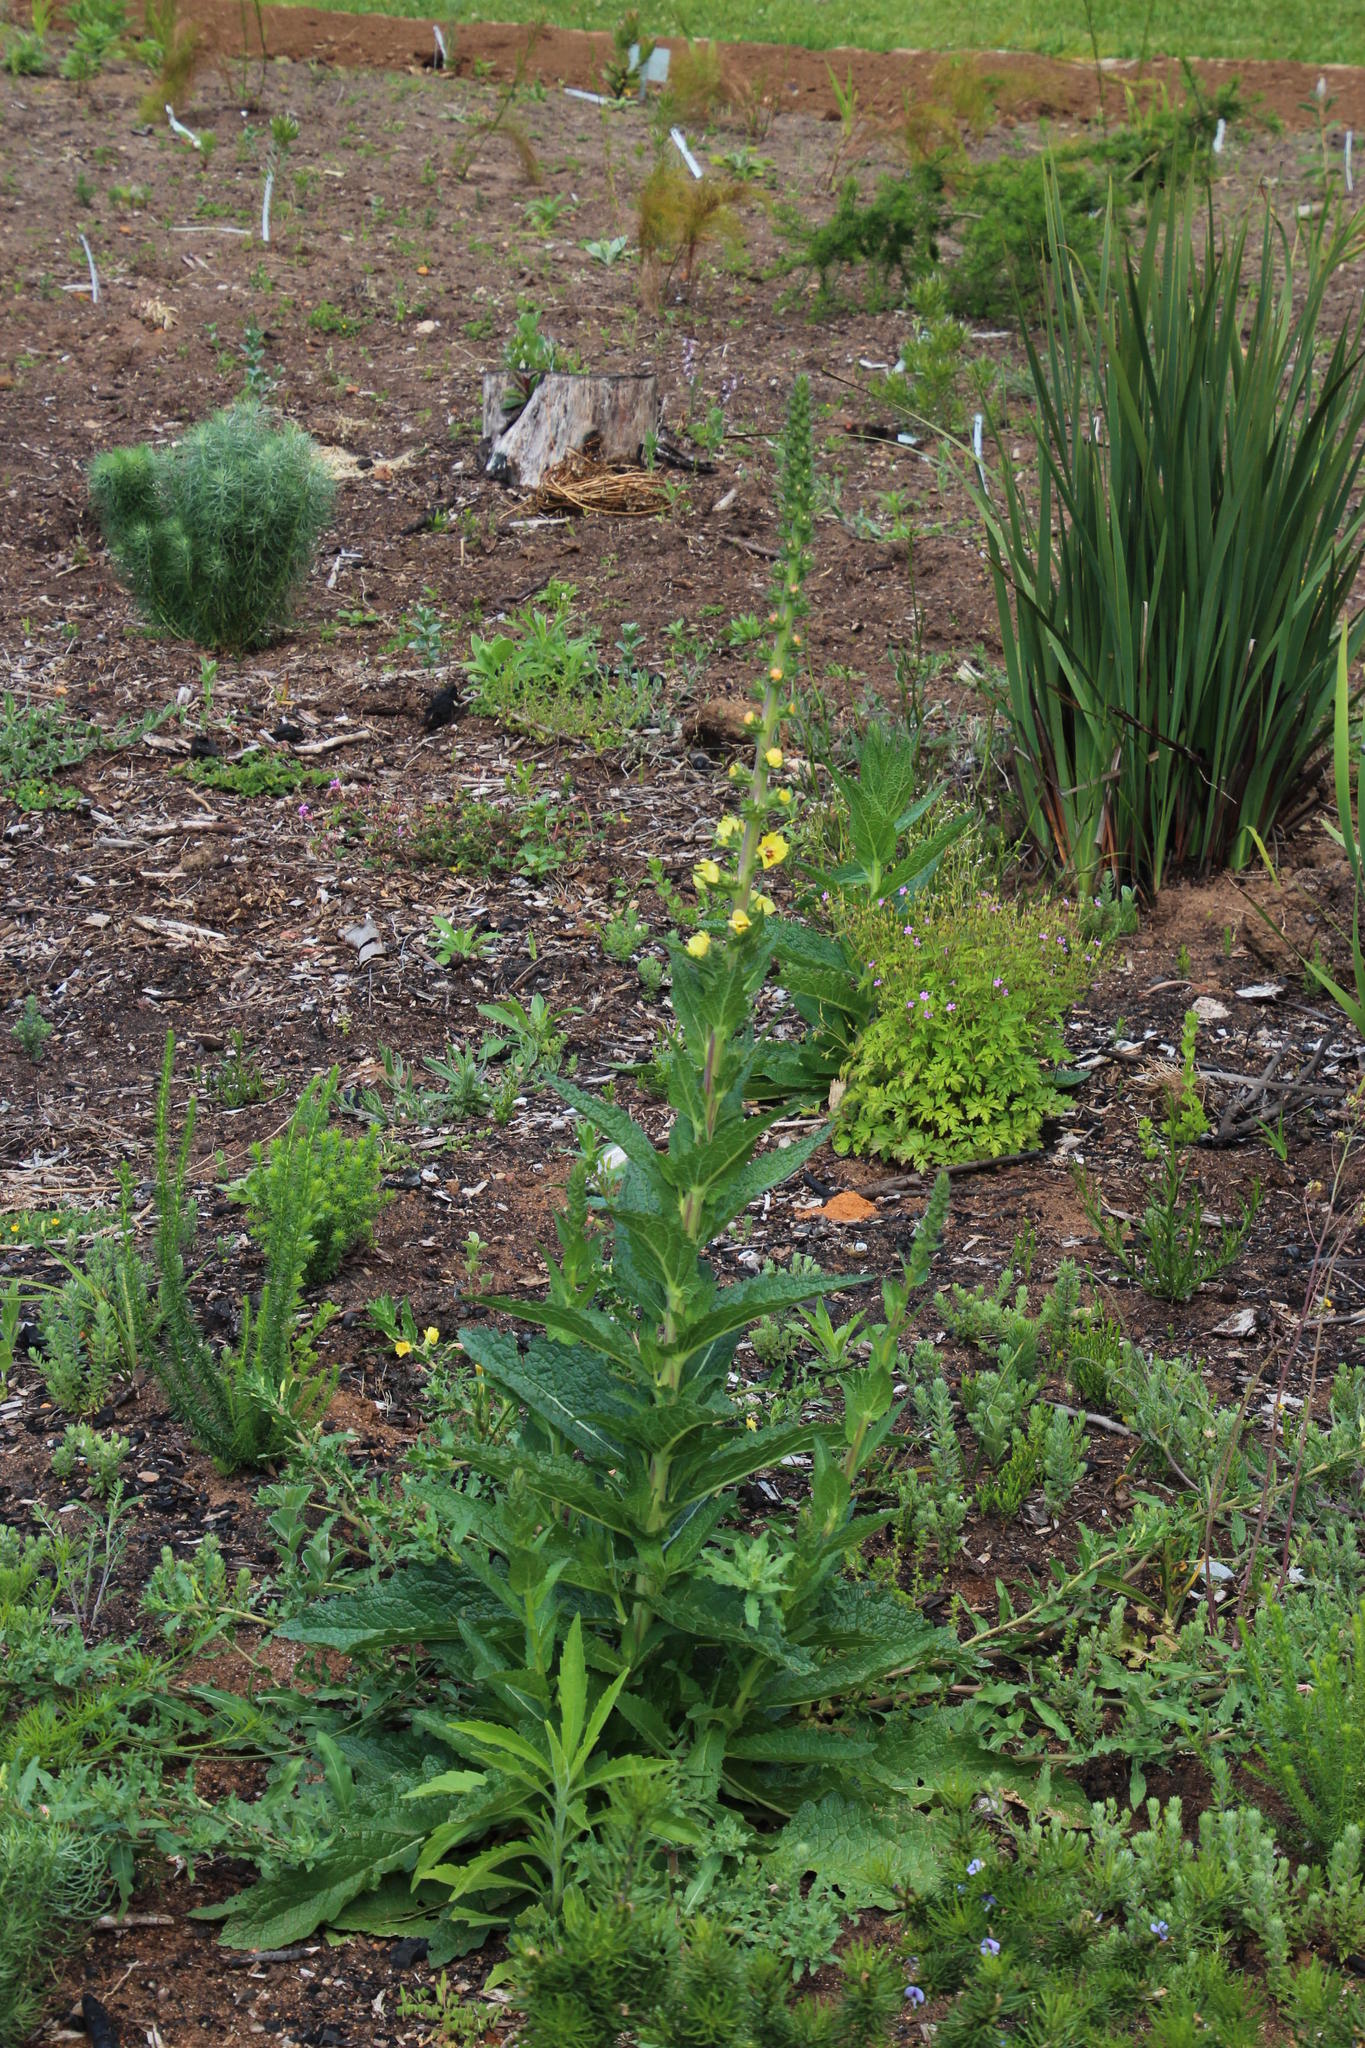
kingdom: Plantae
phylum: Tracheophyta
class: Magnoliopsida
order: Lamiales
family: Scrophulariaceae
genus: Verbascum
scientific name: Verbascum virgatum
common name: Twiggy mullein
